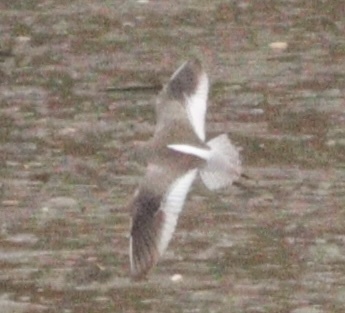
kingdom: Animalia
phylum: Chordata
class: Aves
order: Charadriiformes
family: Scolopacidae
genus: Tringa
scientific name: Tringa totanus
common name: Common redshank
